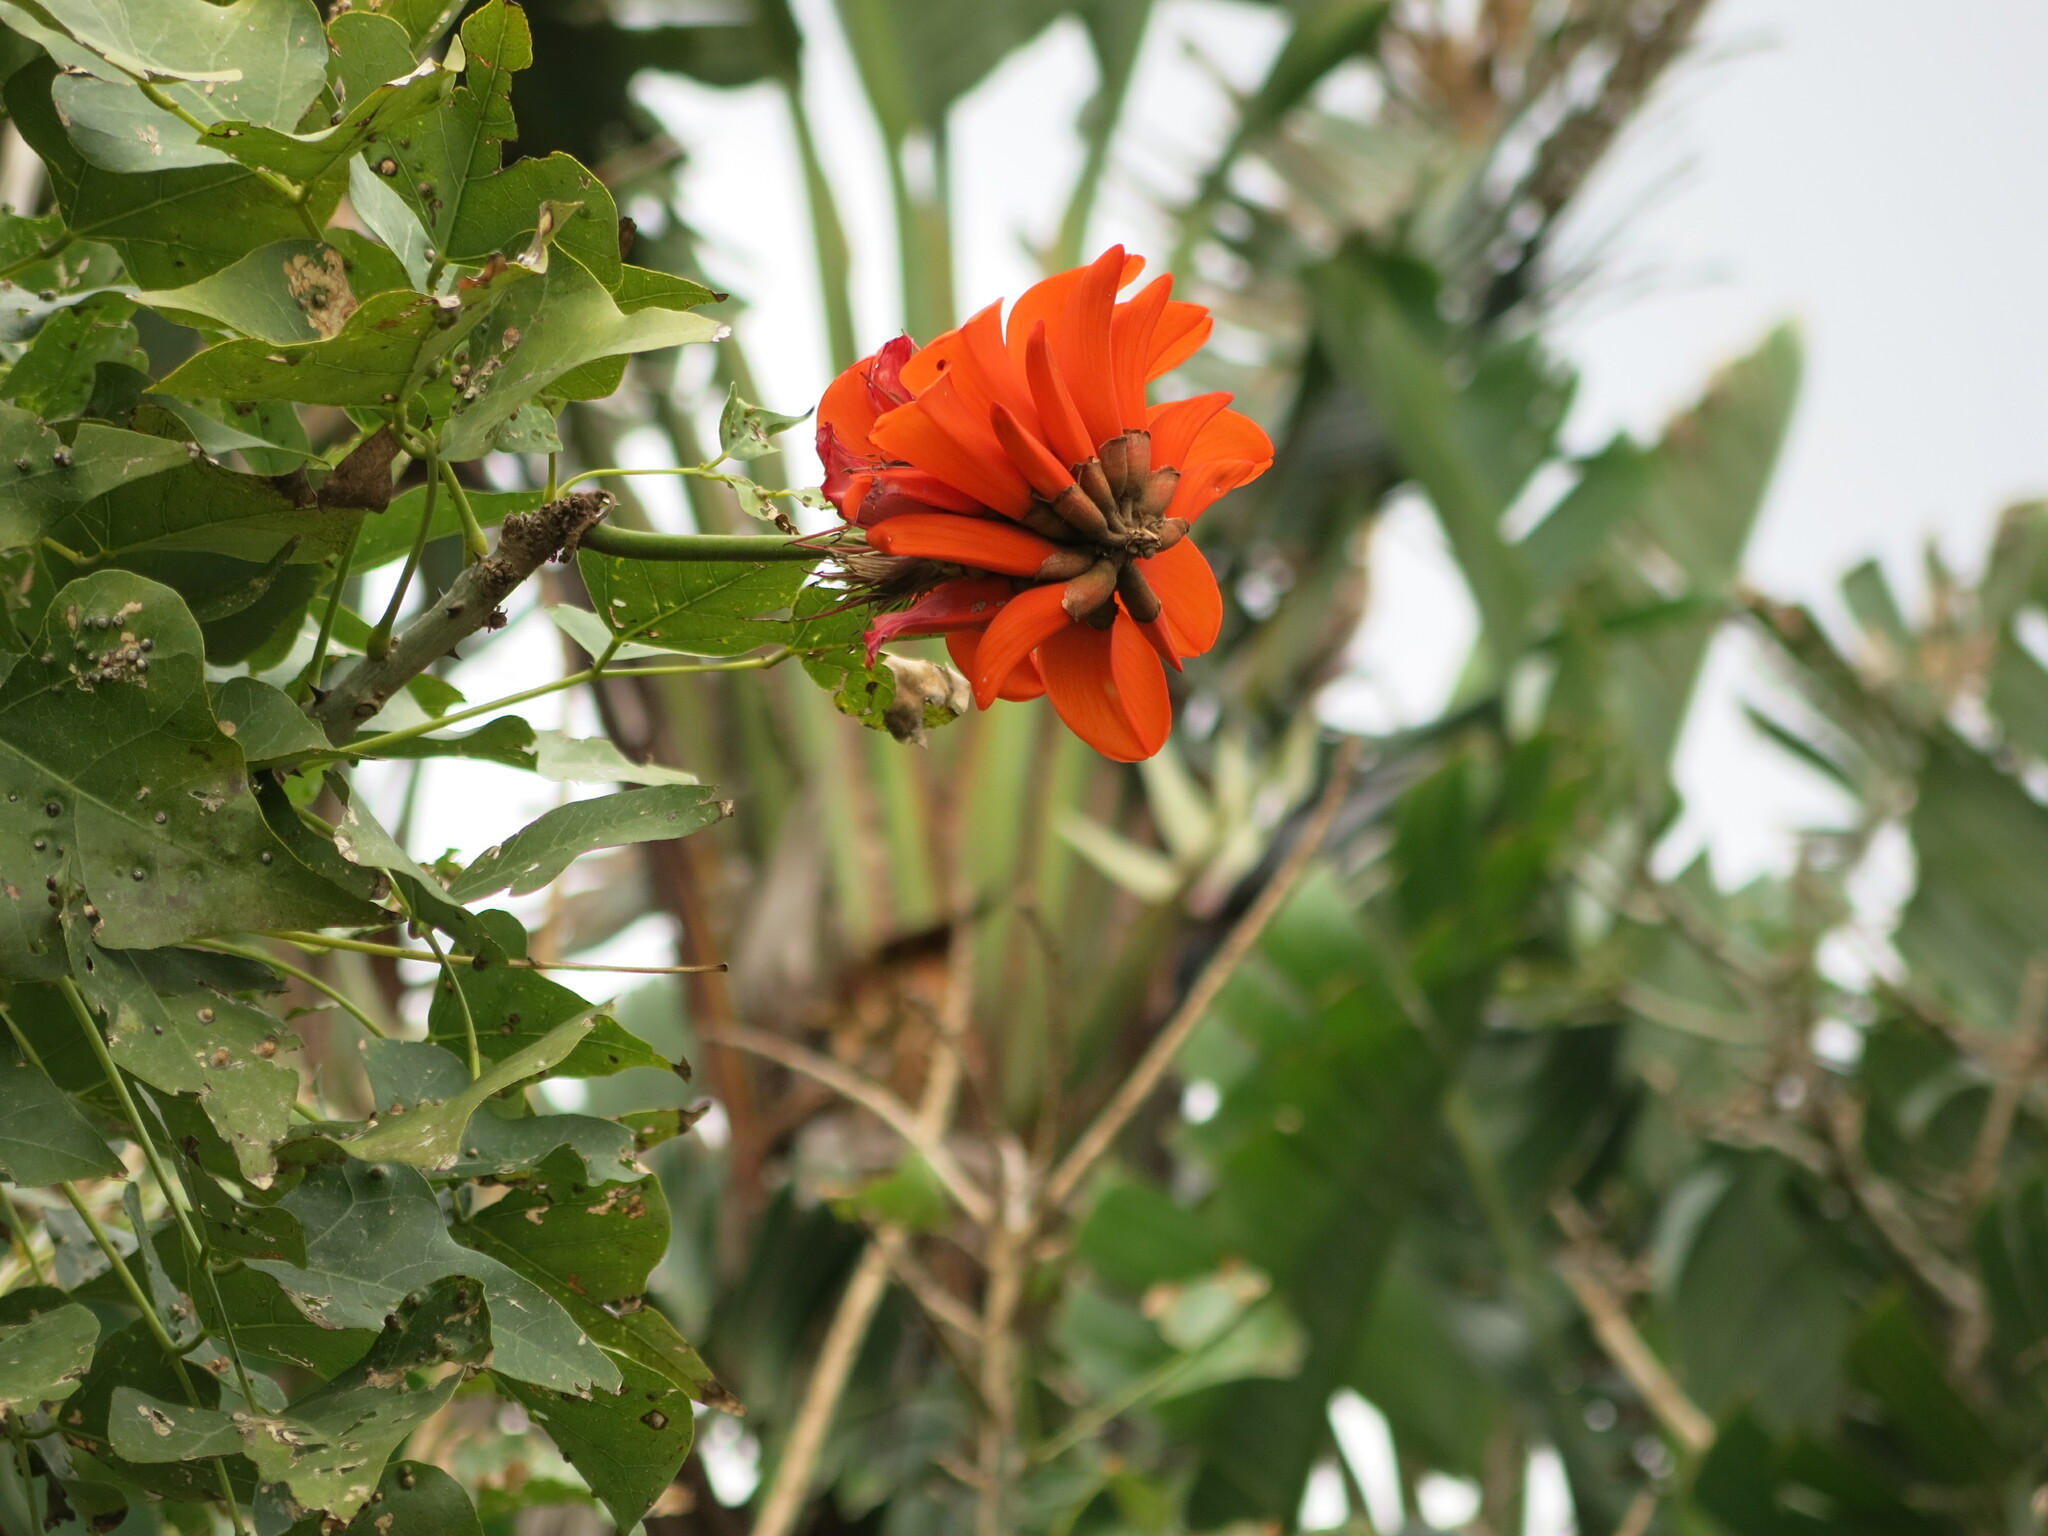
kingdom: Plantae
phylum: Tracheophyta
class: Magnoliopsida
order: Fabales
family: Fabaceae
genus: Erythrina
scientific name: Erythrina caffra
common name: Coast coral tree
